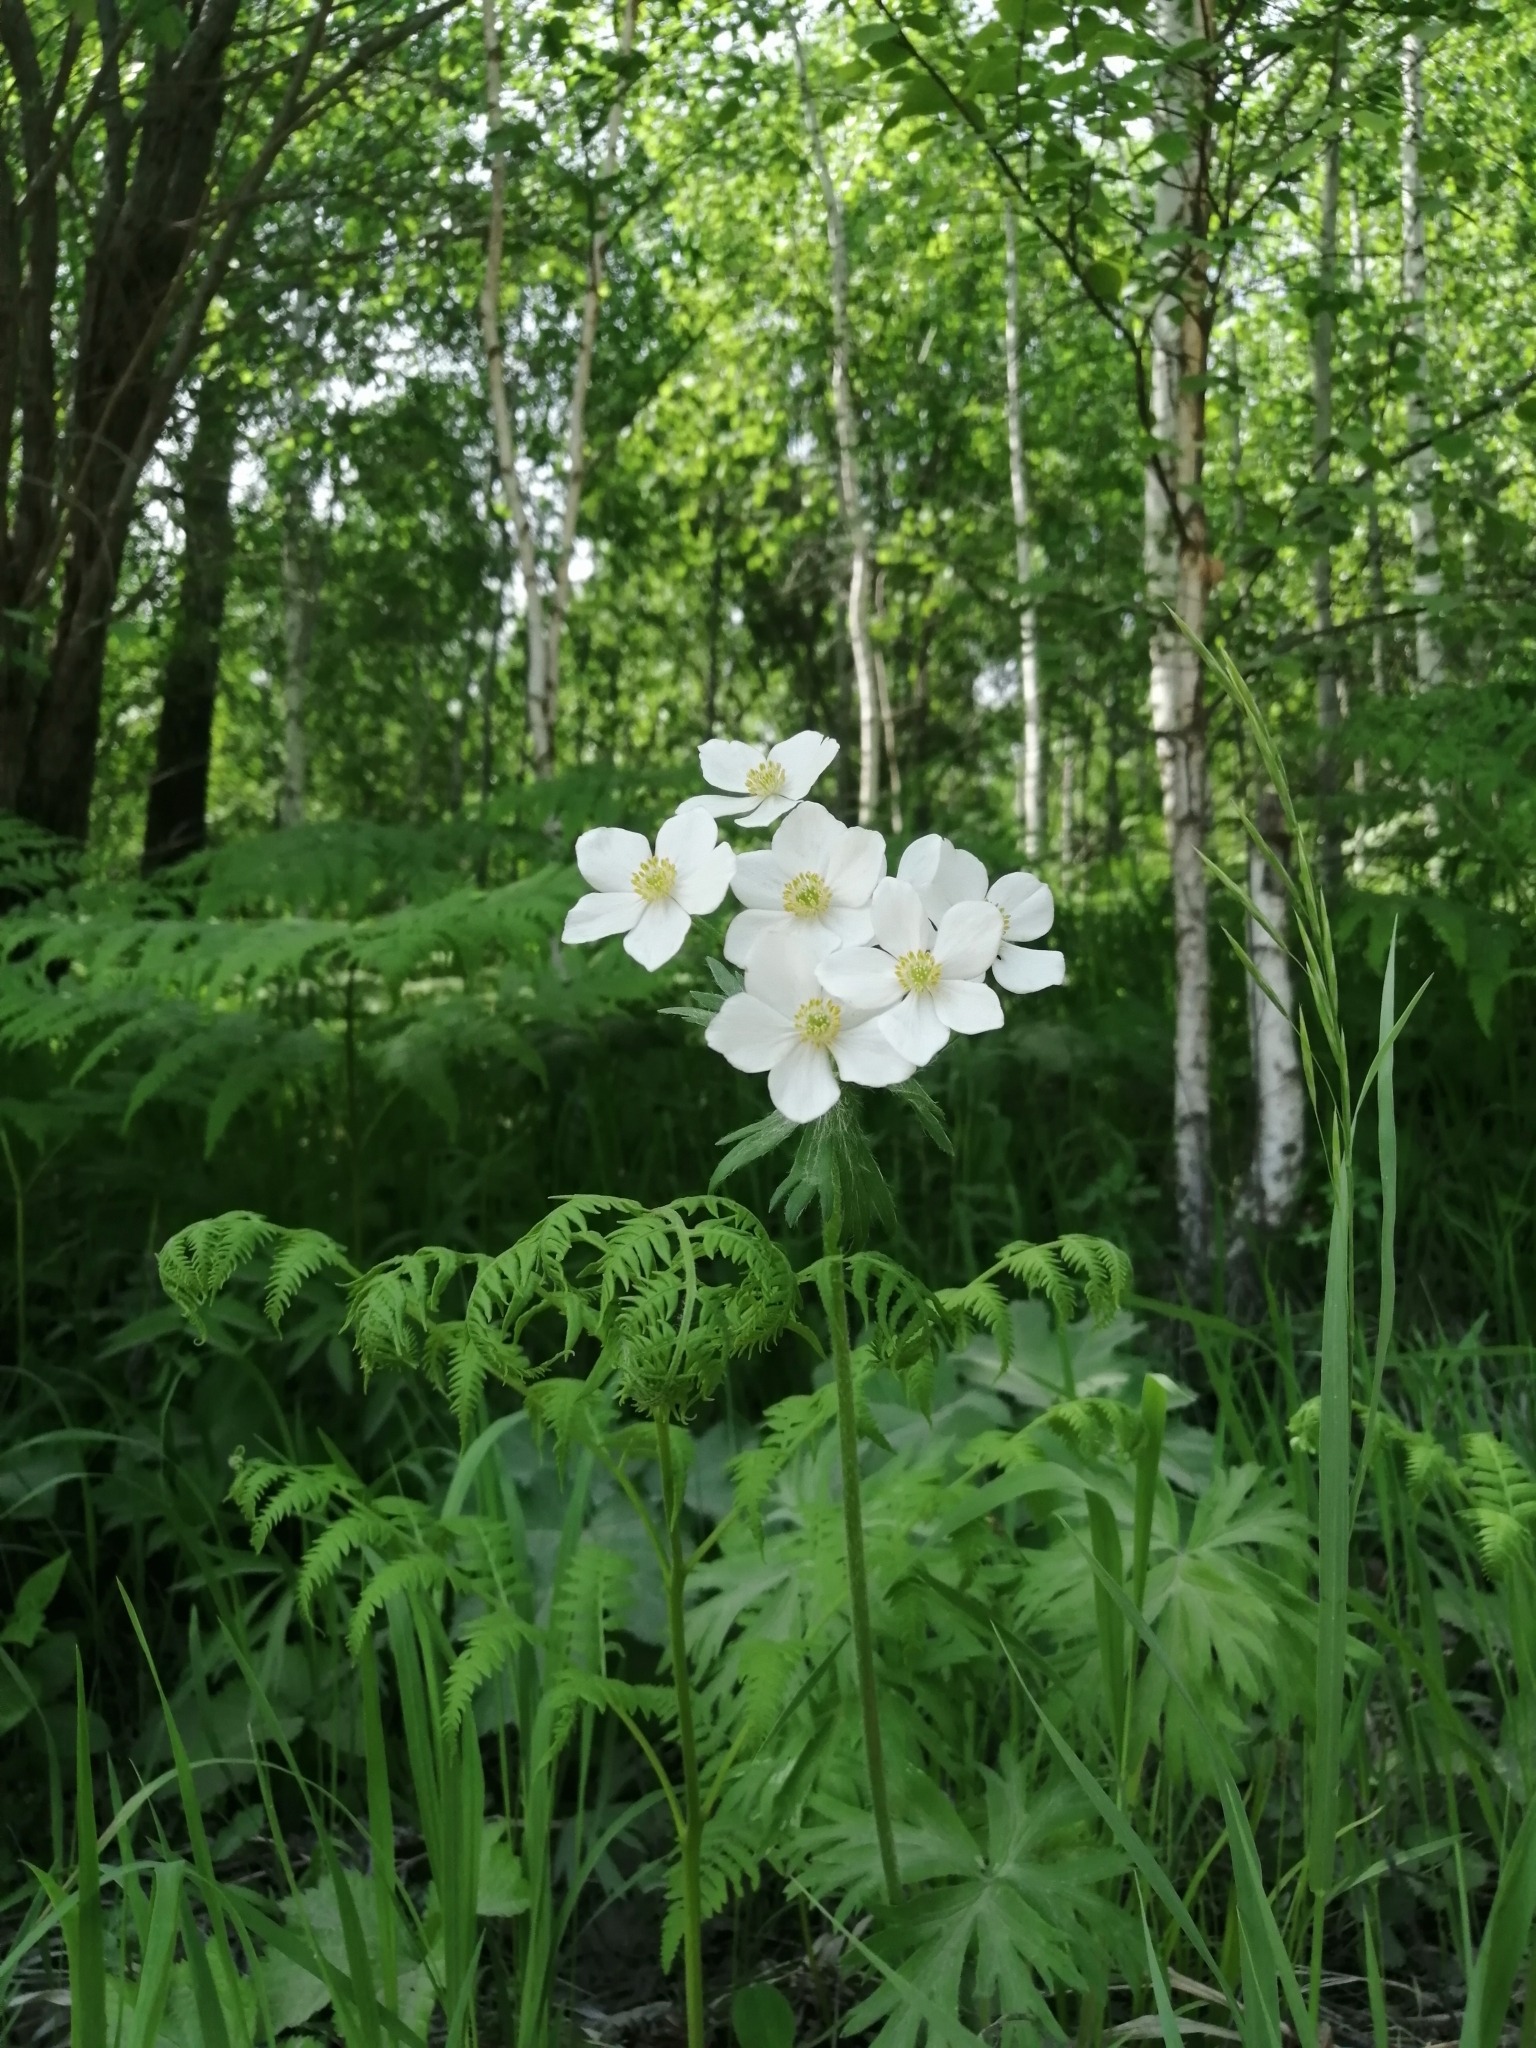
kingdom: Plantae
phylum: Tracheophyta
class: Magnoliopsida
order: Ranunculales
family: Ranunculaceae
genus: Anemonastrum
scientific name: Anemonastrum narcissiflorum
